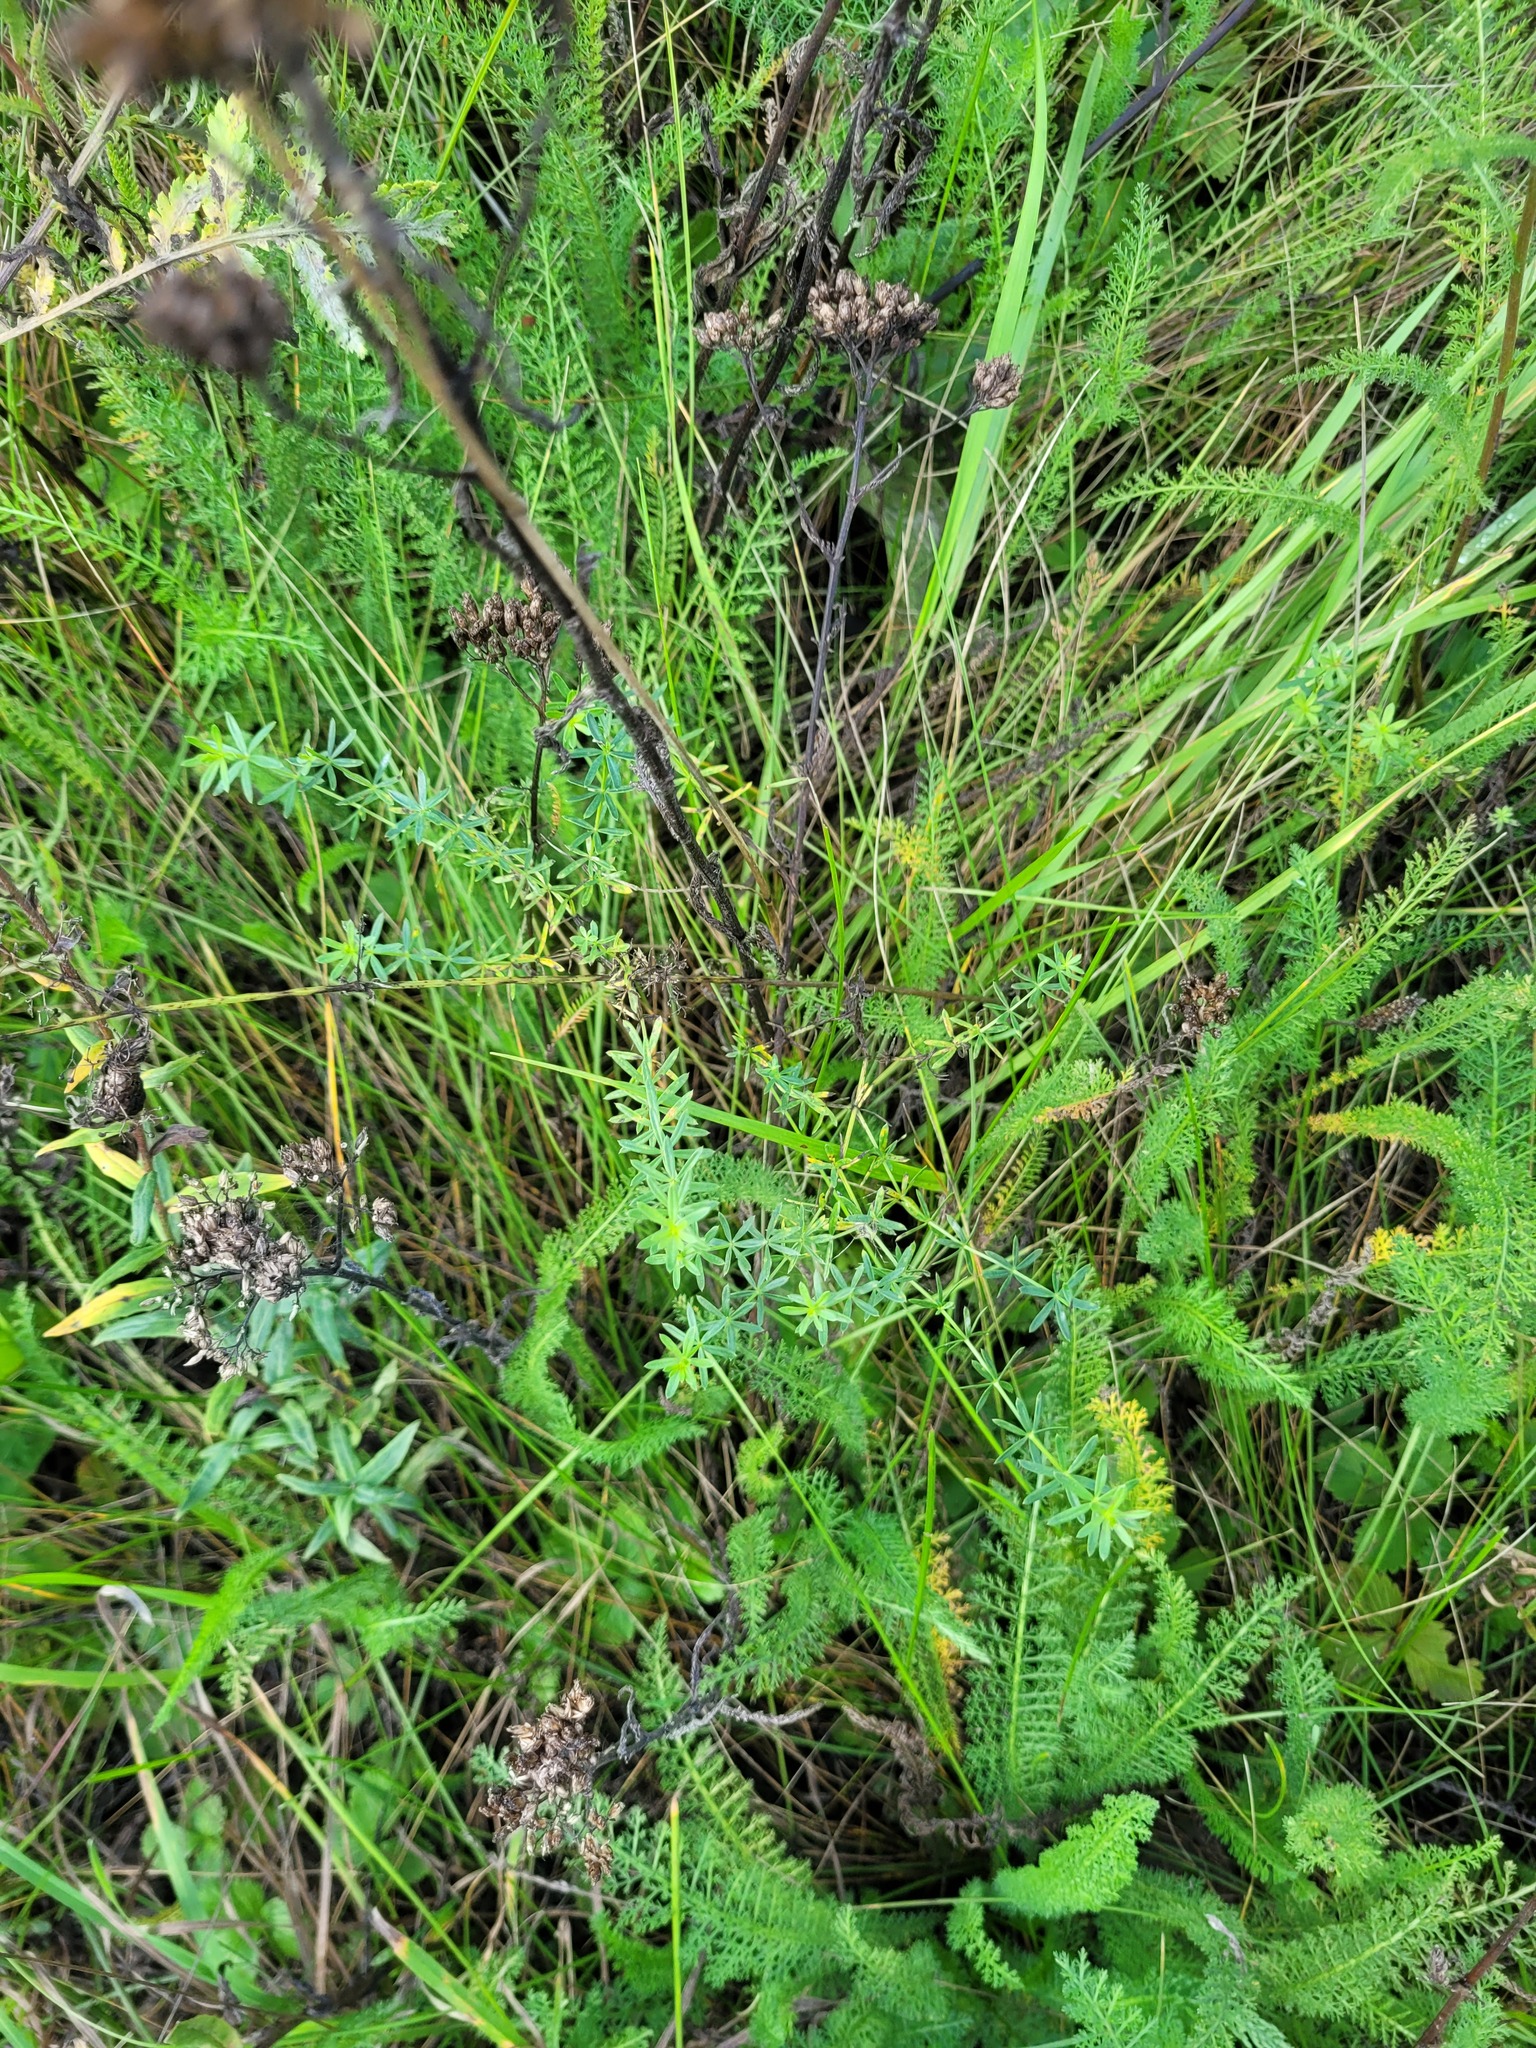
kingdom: Plantae
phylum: Tracheophyta
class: Magnoliopsida
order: Gentianales
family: Rubiaceae
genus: Galium
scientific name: Galium mollugo
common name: Hedge bedstraw
